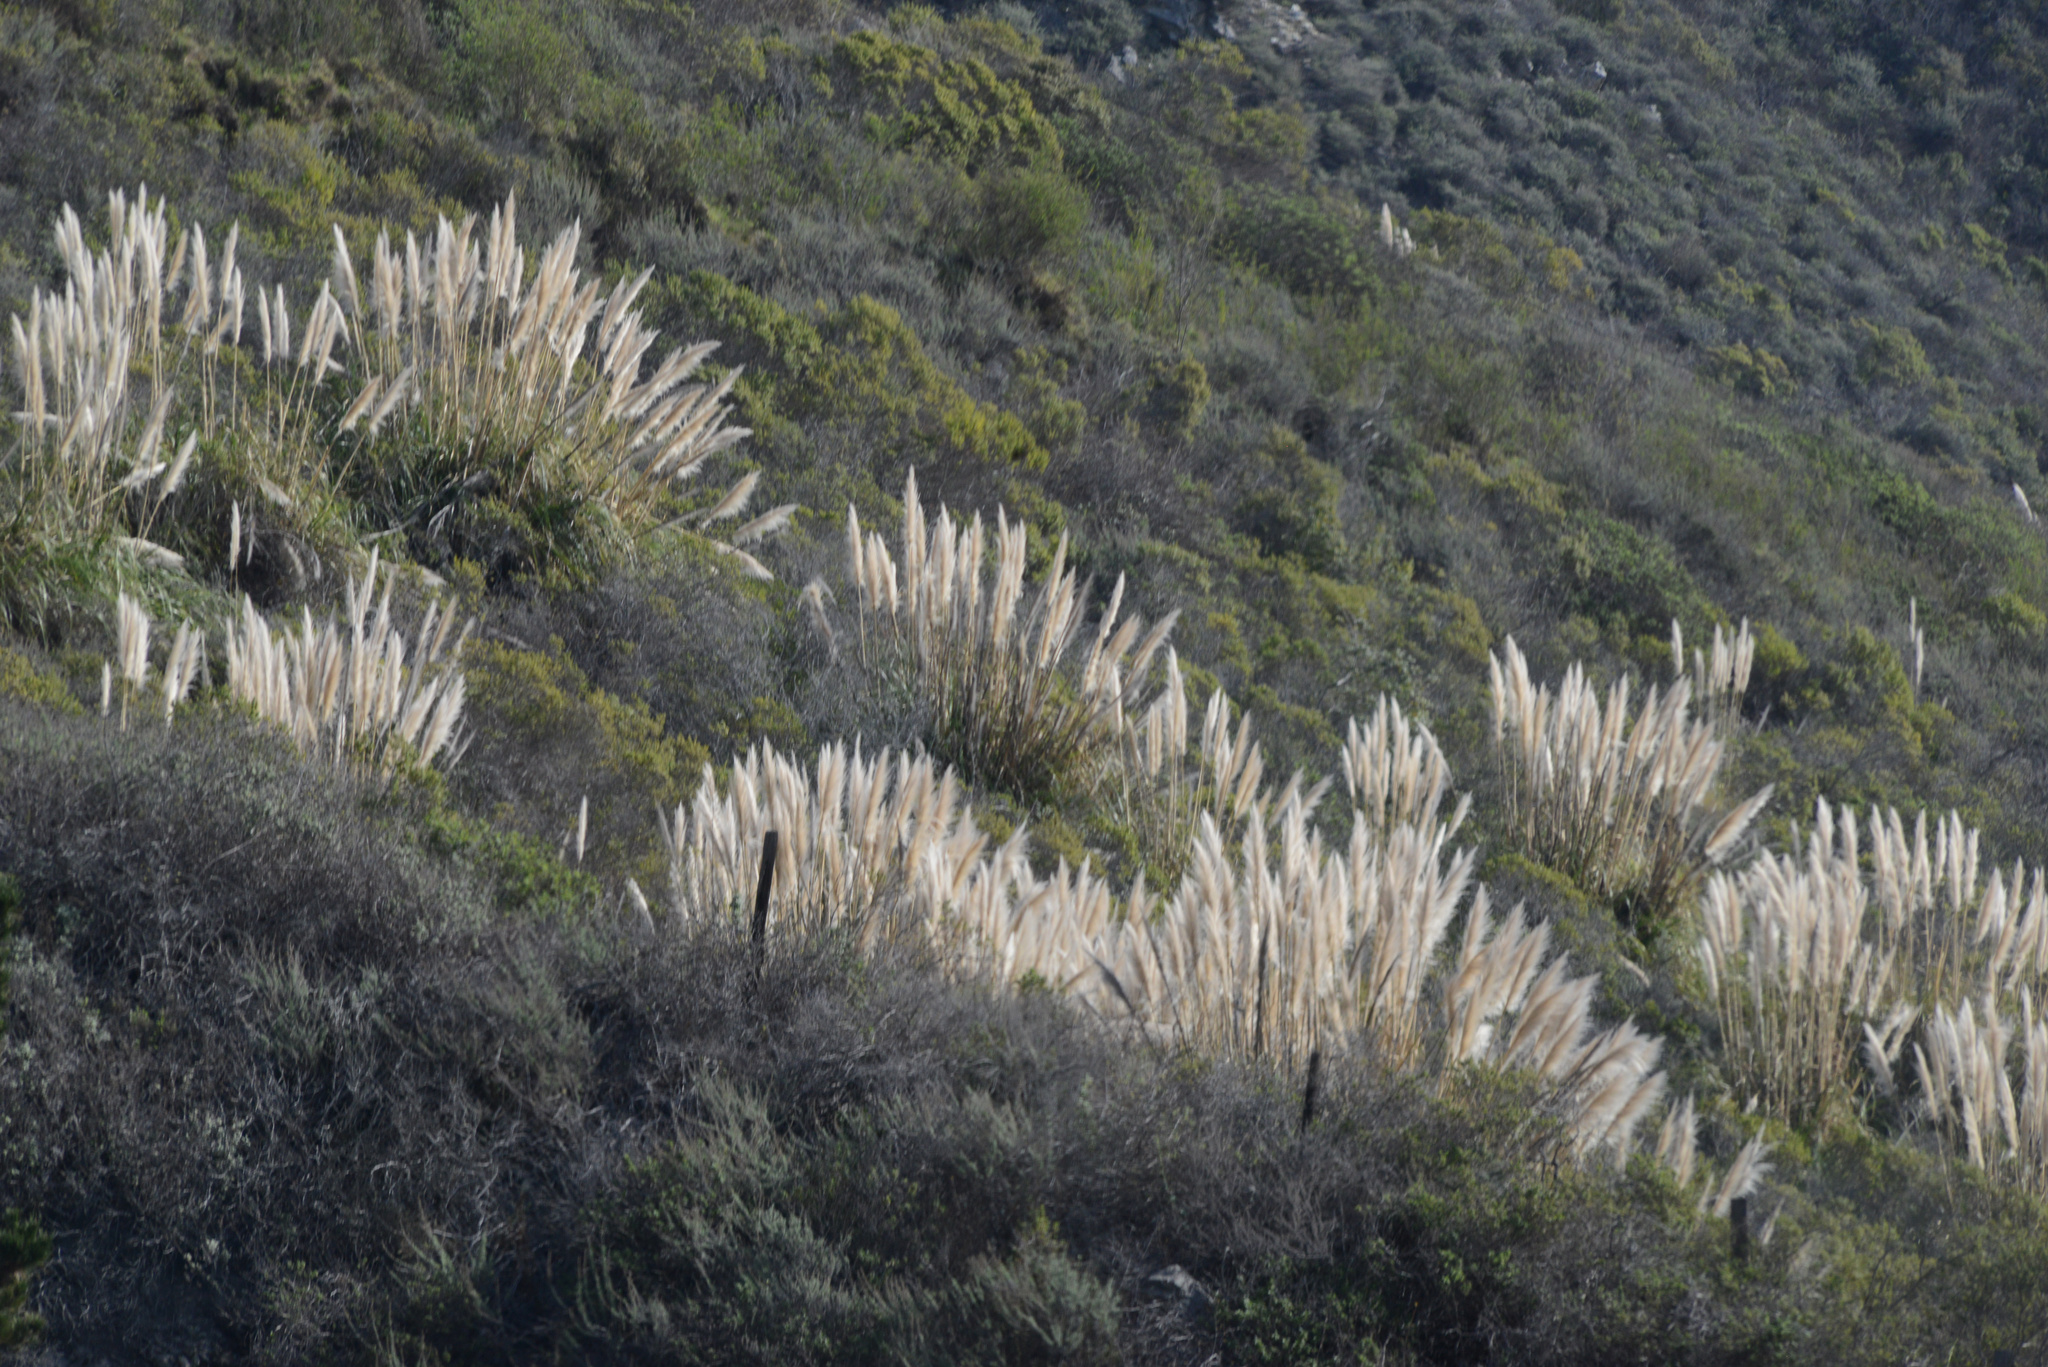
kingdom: Plantae
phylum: Tracheophyta
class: Liliopsida
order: Poales
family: Poaceae
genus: Cortaderia
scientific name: Cortaderia selloana
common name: Uruguayan pampas grass
